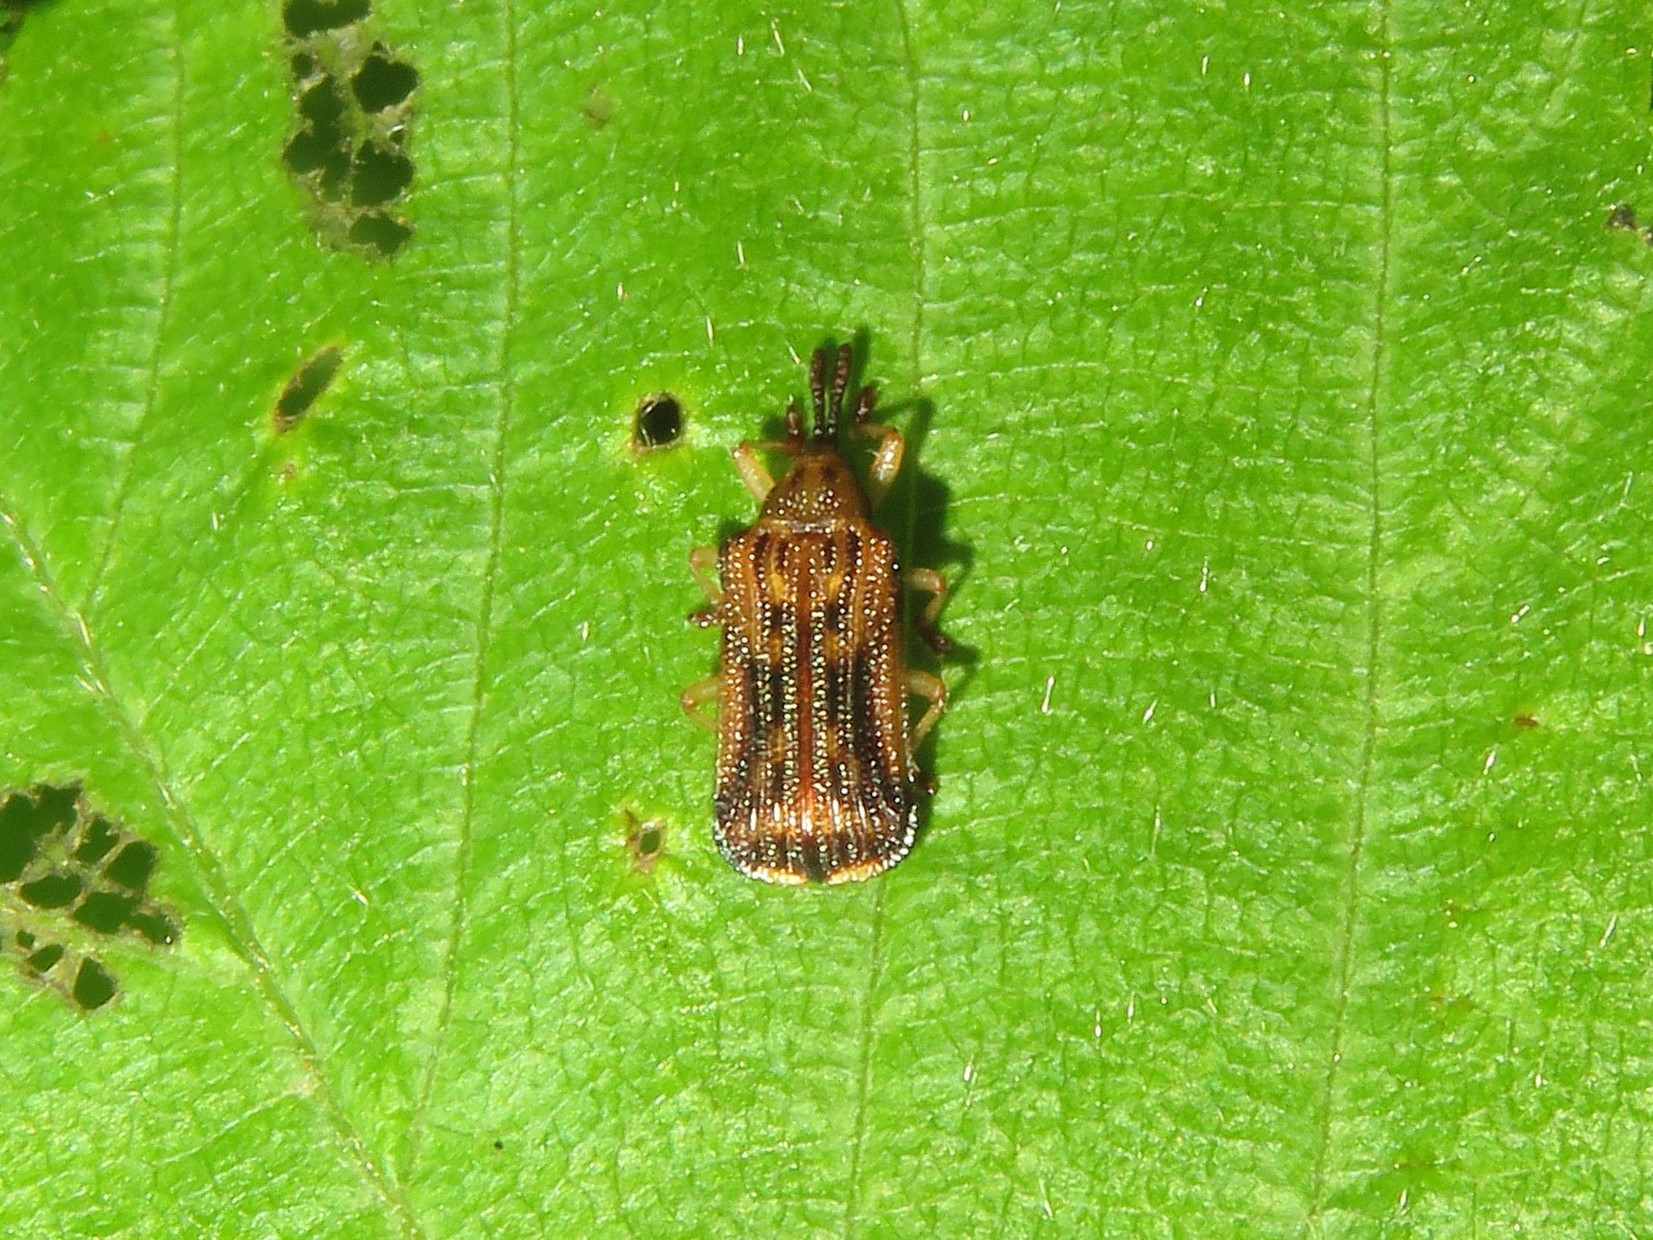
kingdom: Animalia
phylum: Arthropoda
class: Insecta
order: Coleoptera
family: Chrysomelidae
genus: Baliosus
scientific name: Baliosus nervosus
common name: Basswood leaf miner
